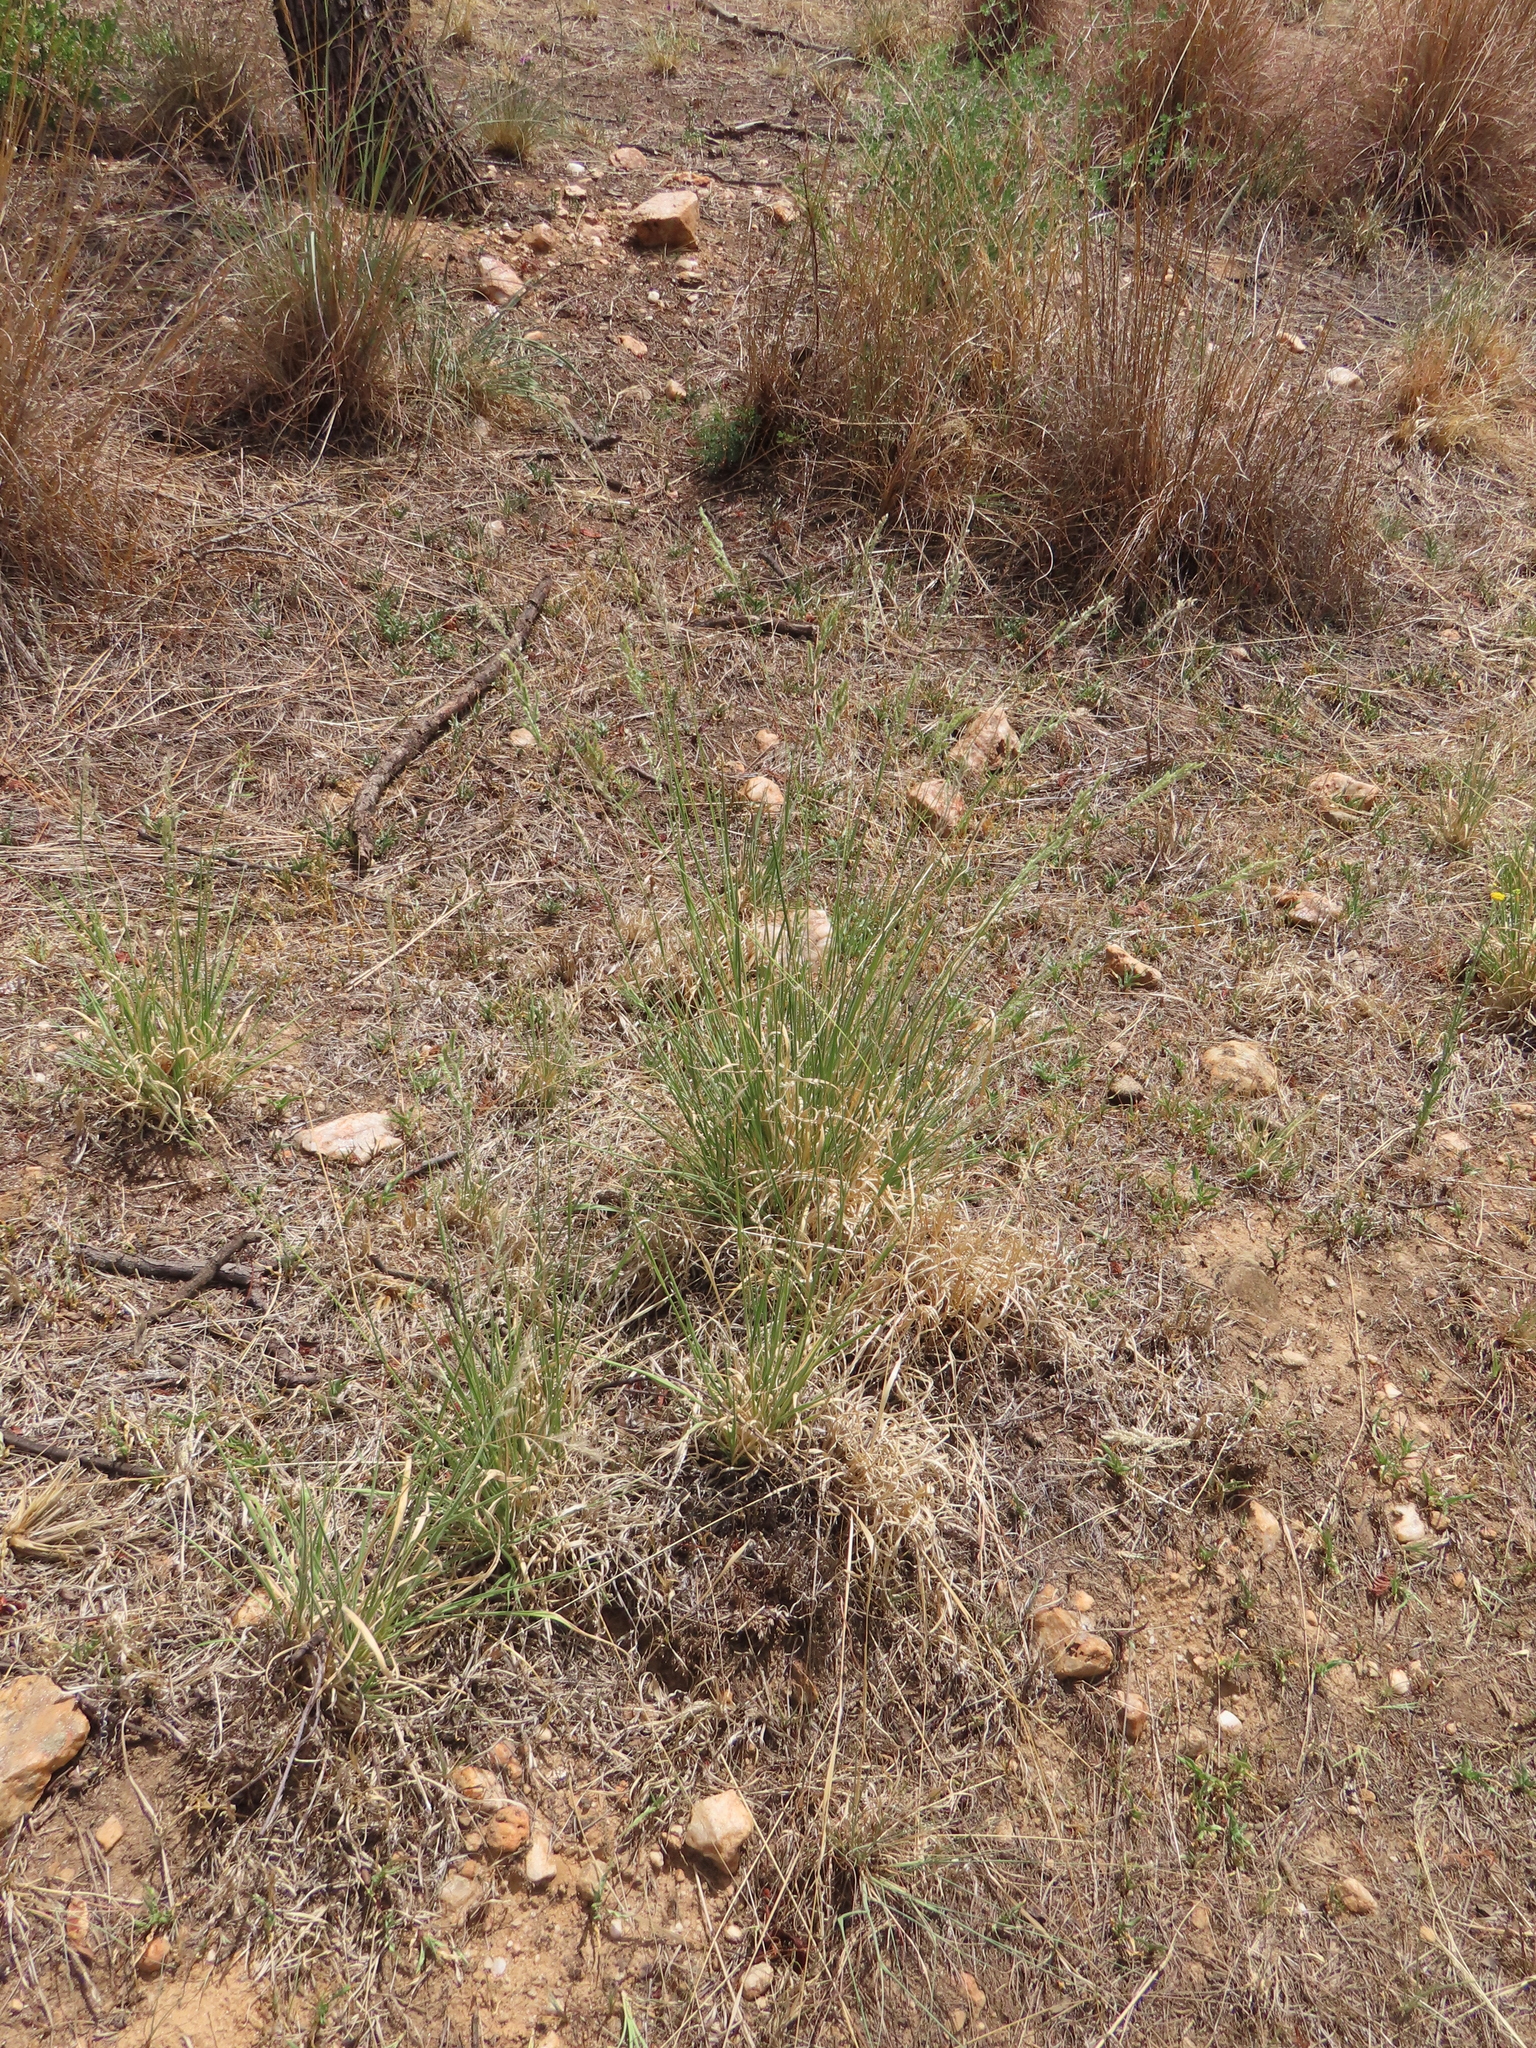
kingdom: Plantae
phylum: Tracheophyta
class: Liliopsida
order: Poales
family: Poaceae
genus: Urochloa
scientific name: Urochloa nigropedata
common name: Spotted signal grass
